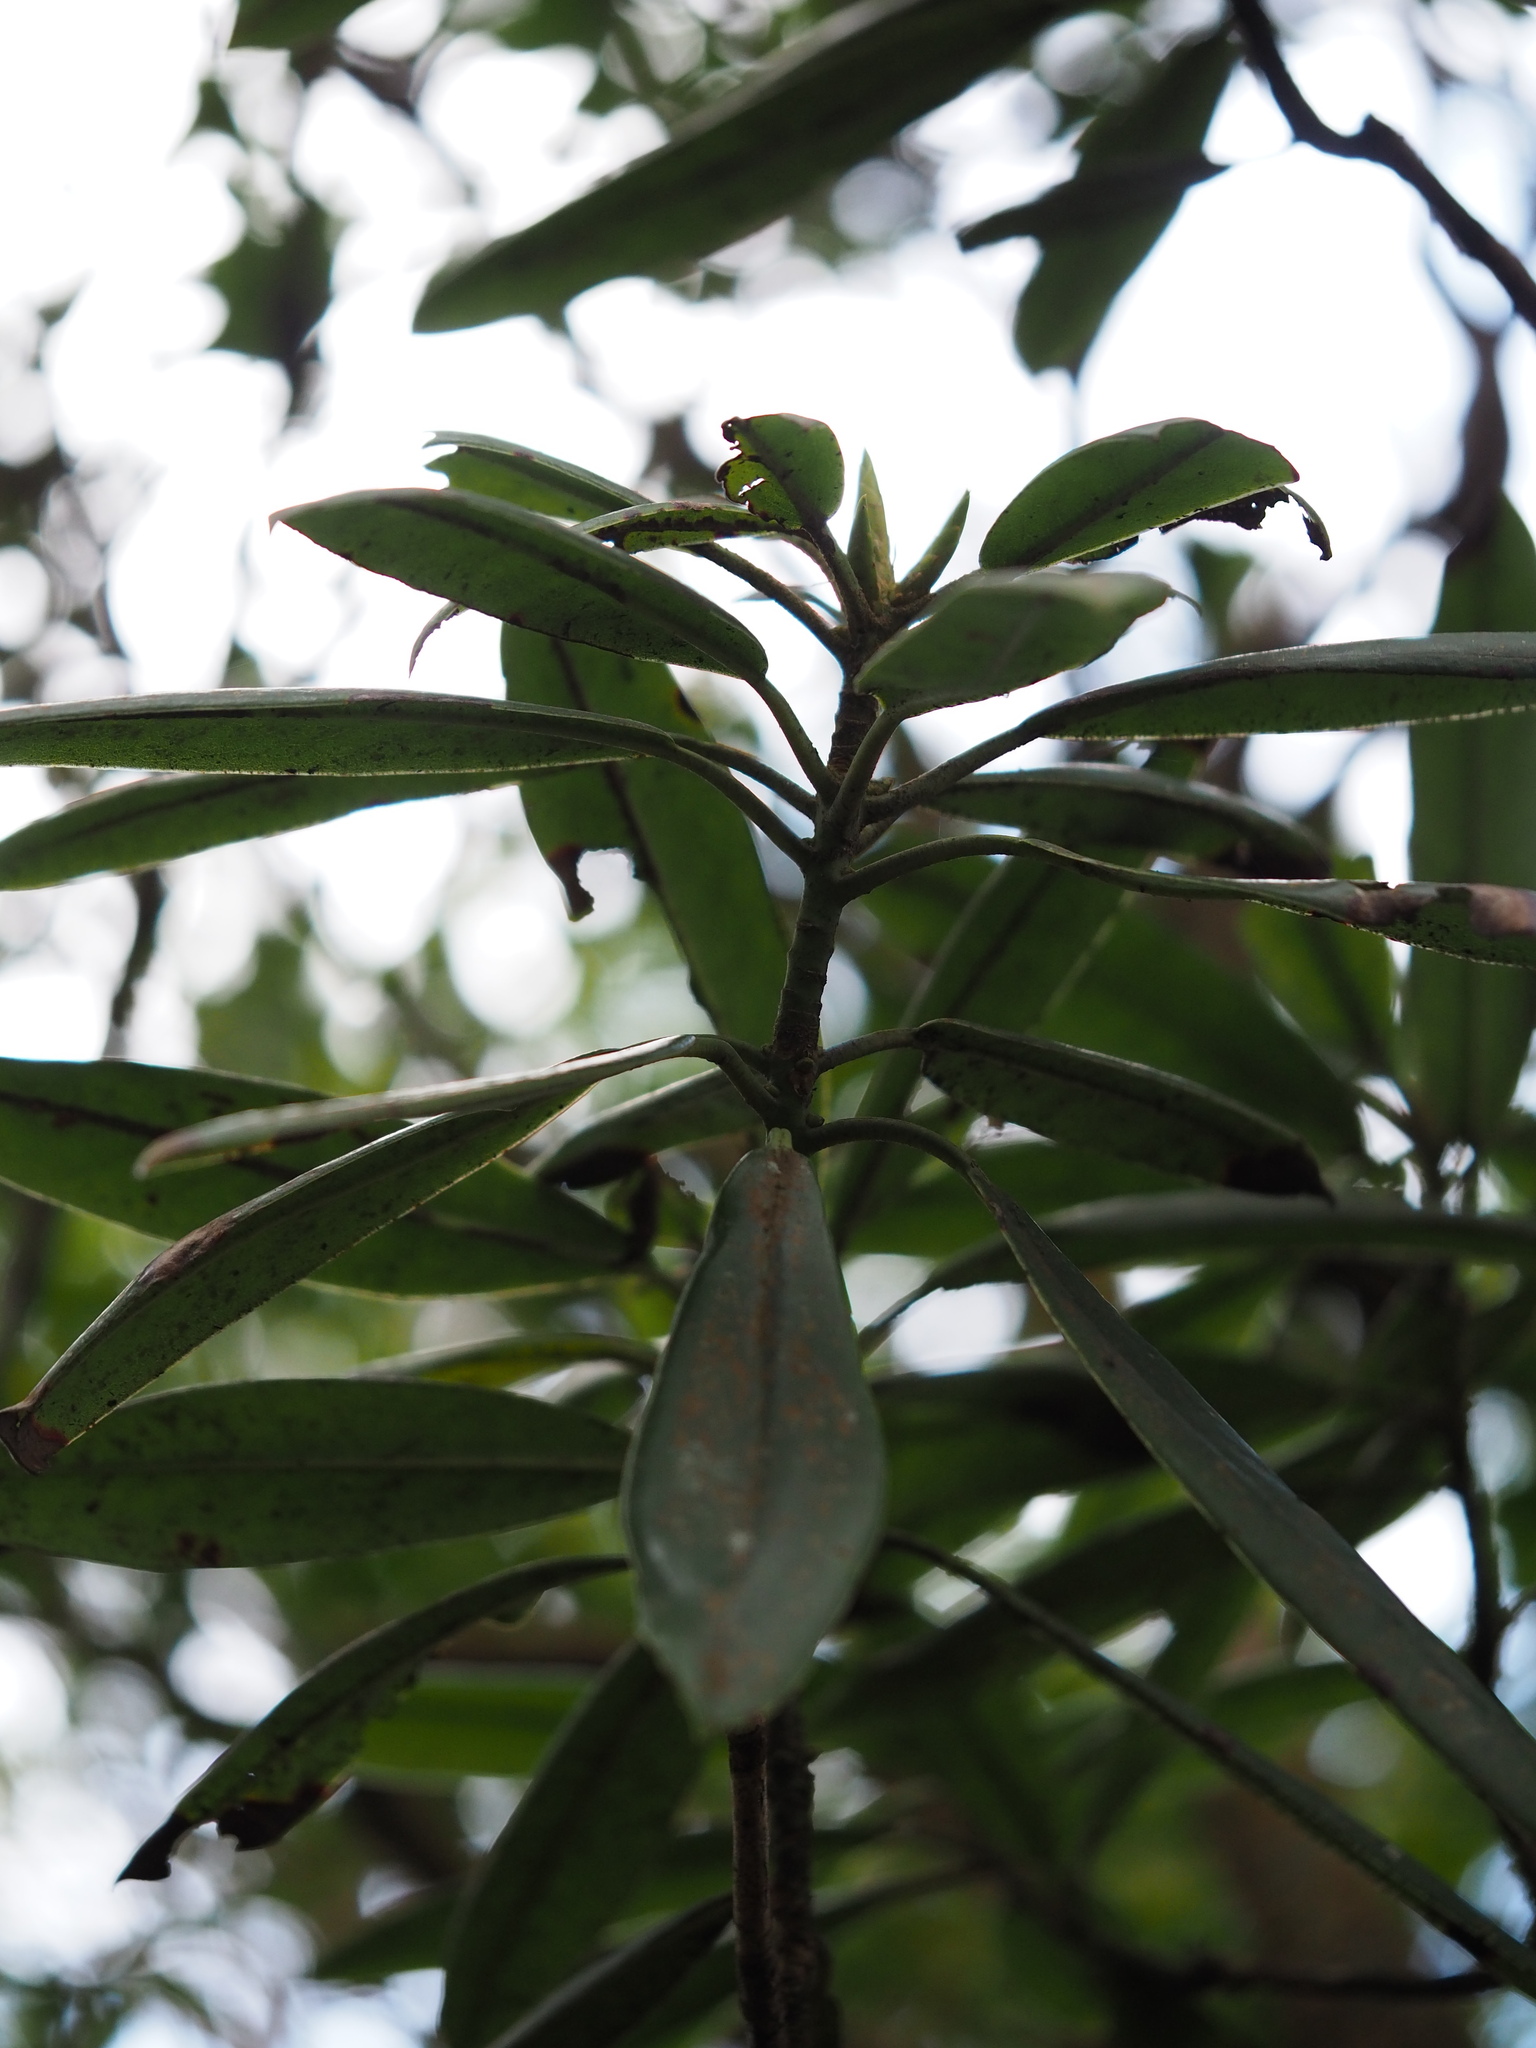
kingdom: Plantae
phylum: Tracheophyta
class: Magnoliopsida
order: Ericales
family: Ericaceae
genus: Rhododendron
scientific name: Rhododendron latoucheae
